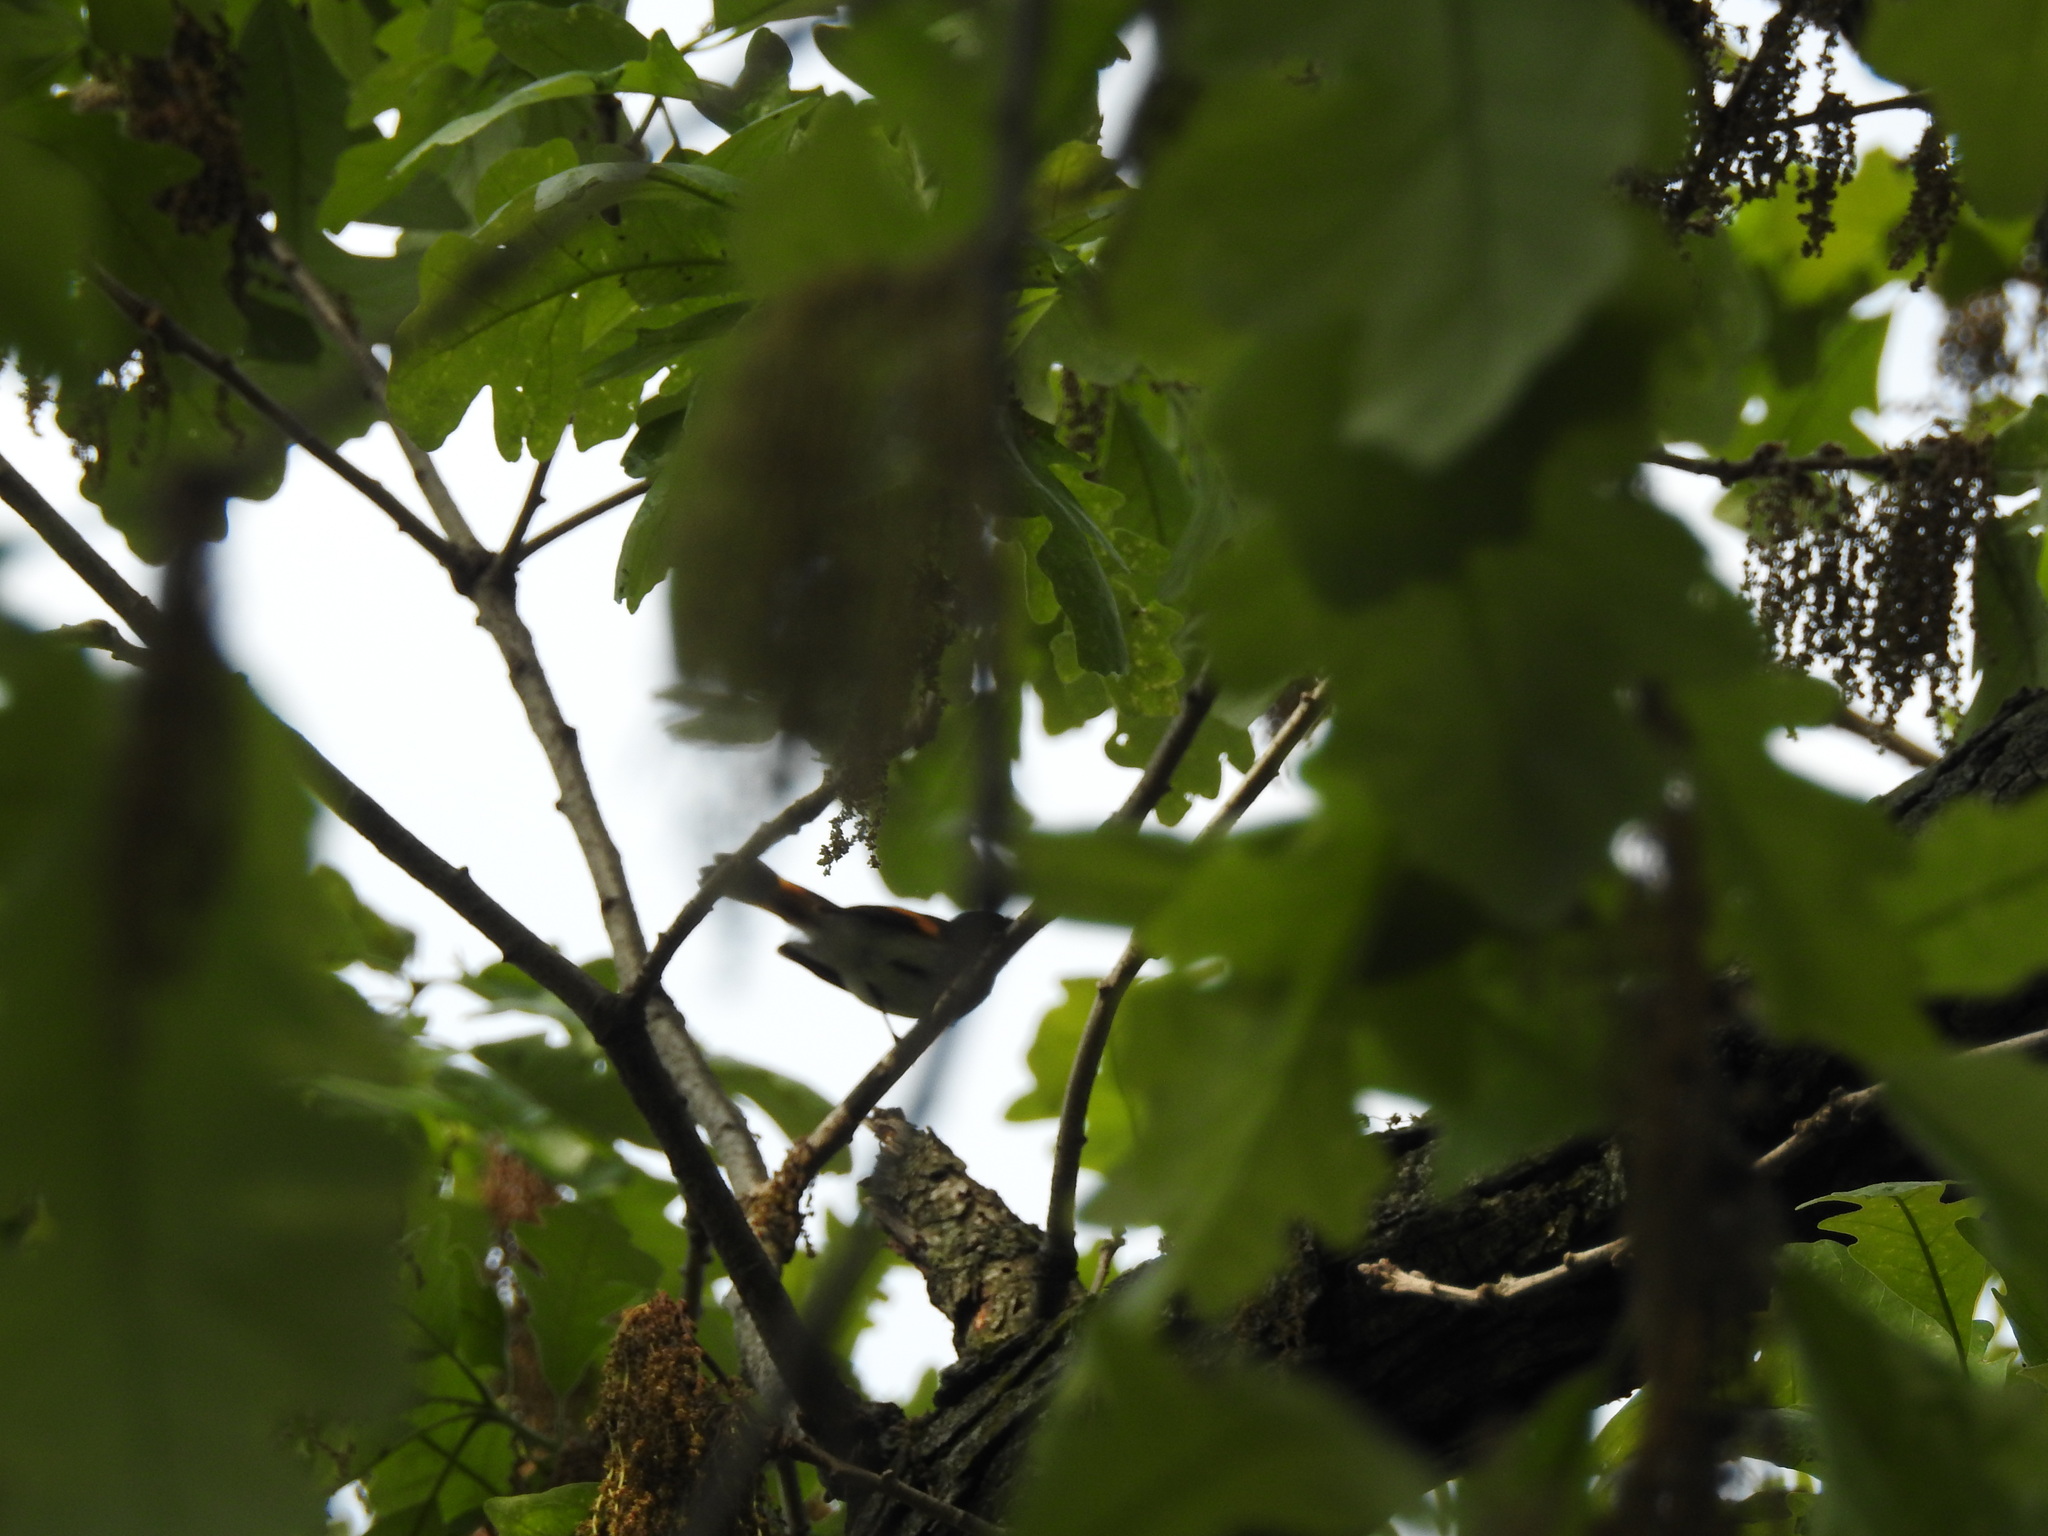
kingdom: Animalia
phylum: Chordata
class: Aves
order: Passeriformes
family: Parulidae
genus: Setophaga
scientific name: Setophaga ruticilla
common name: American redstart
